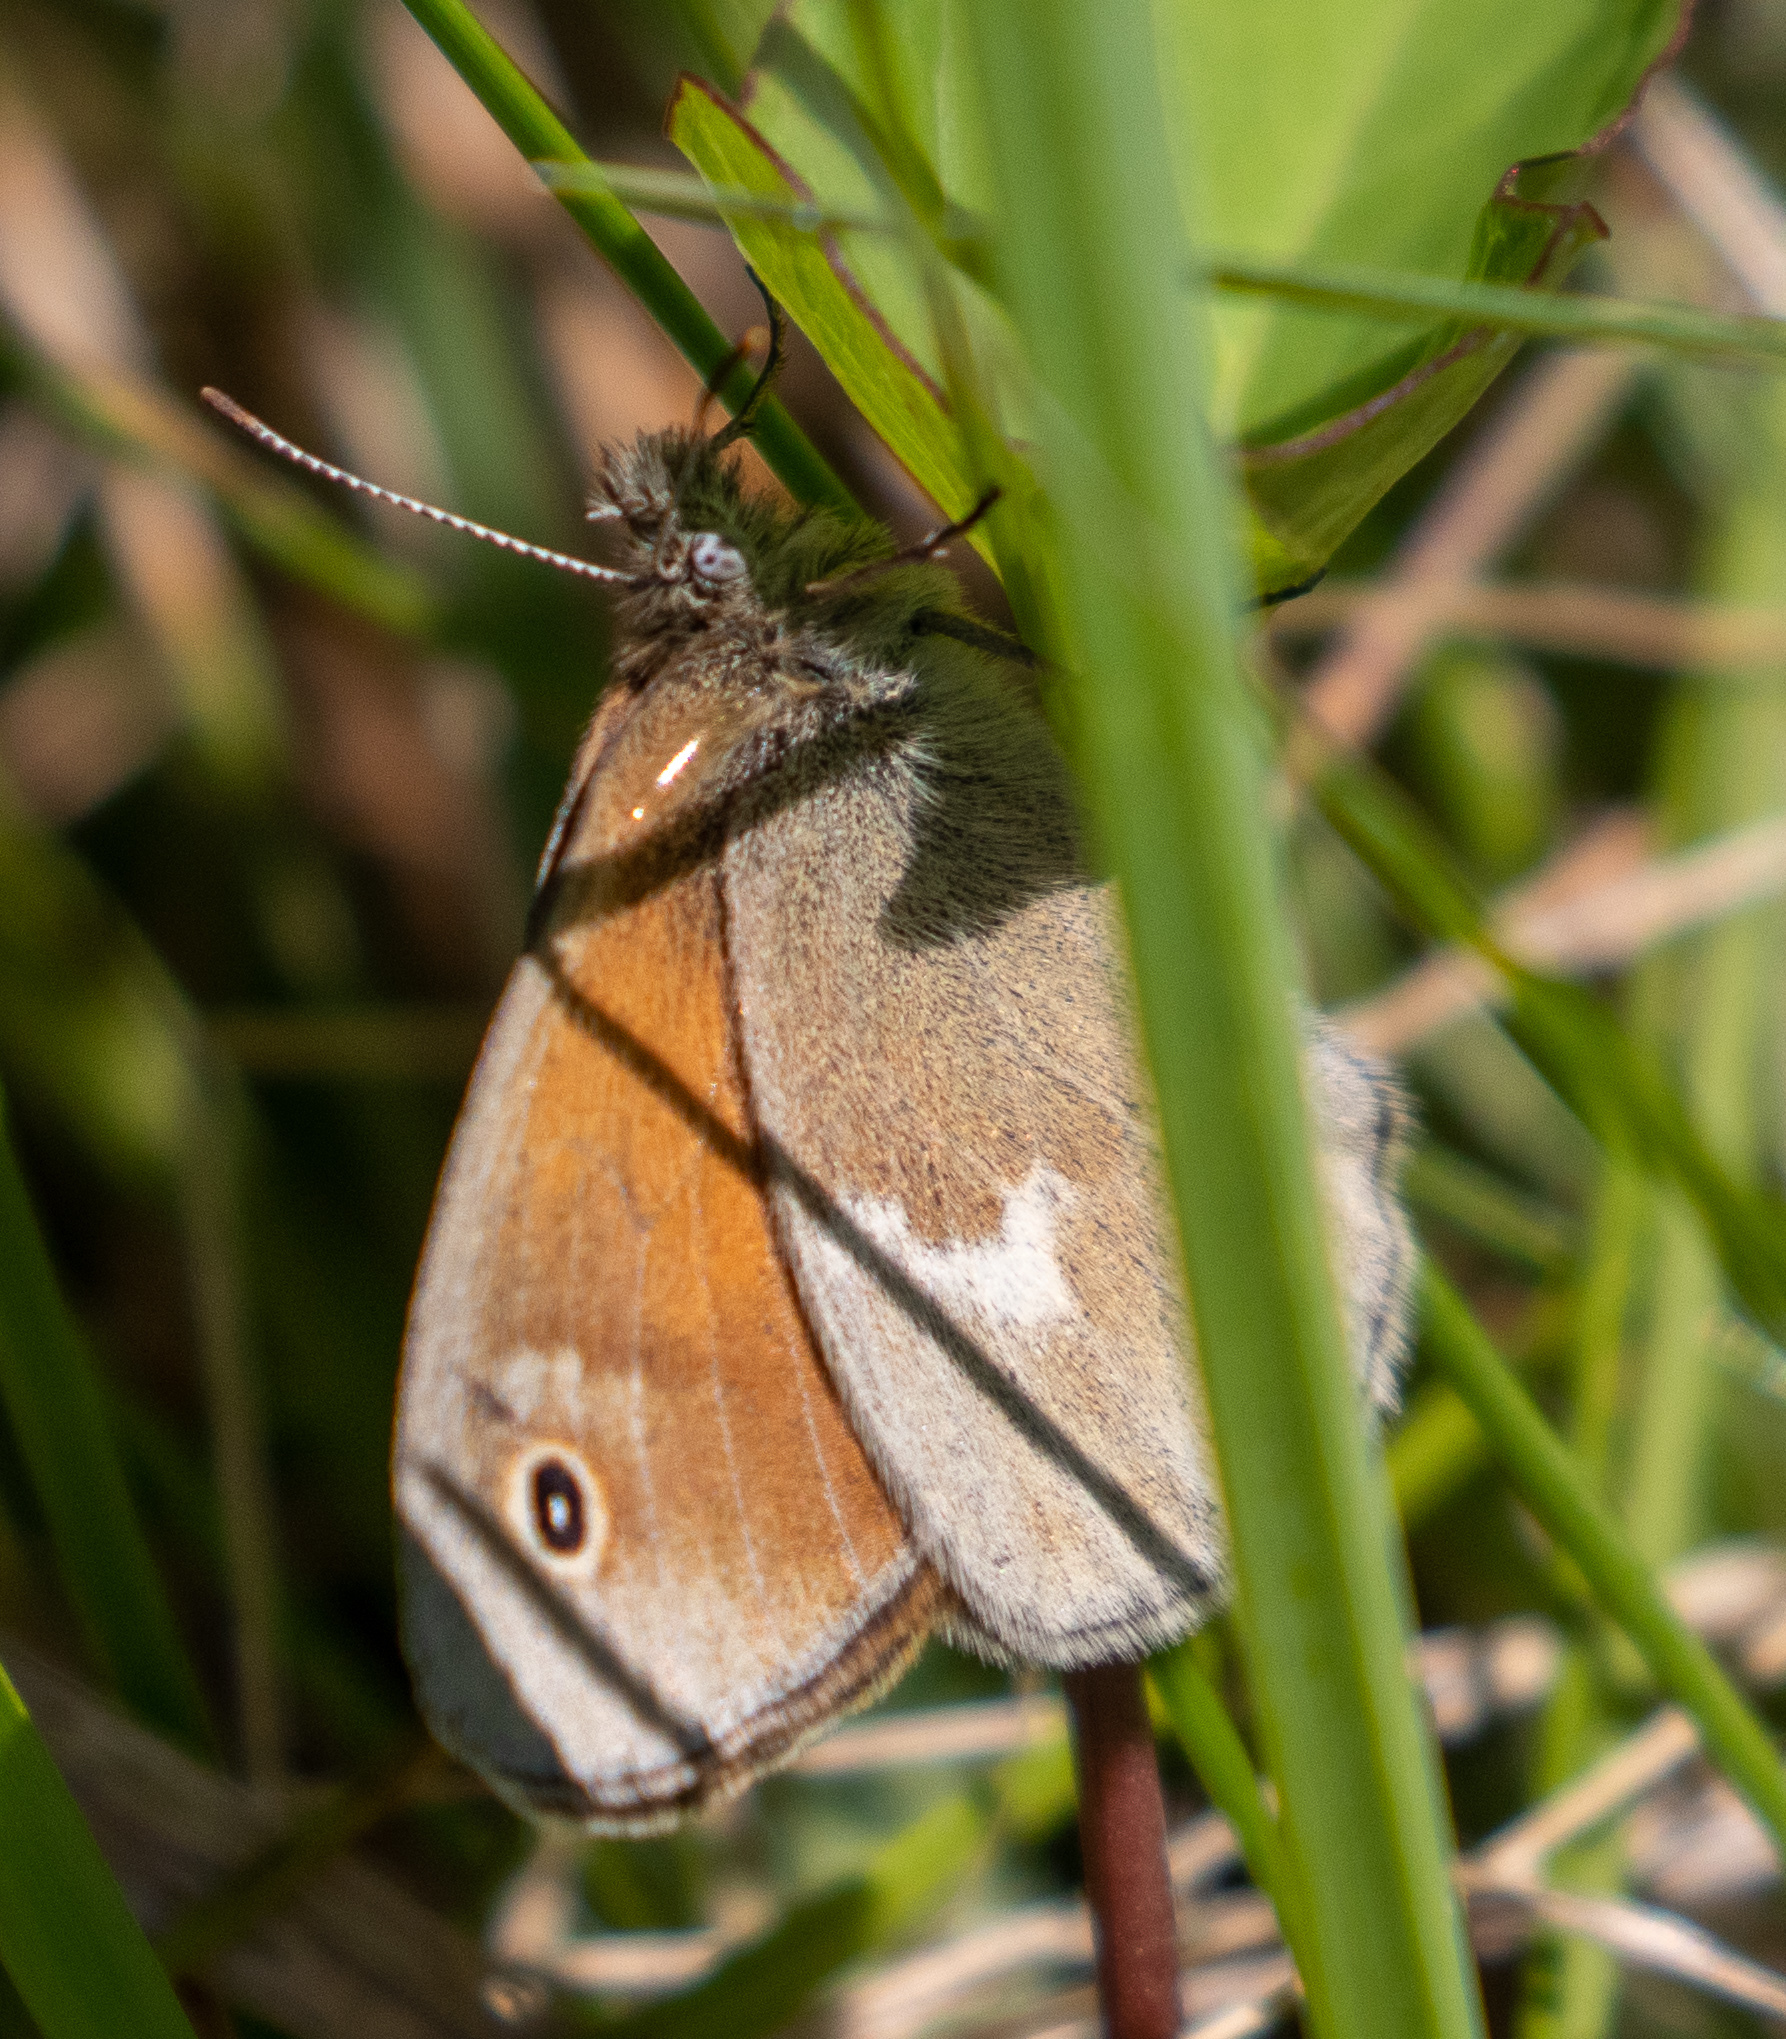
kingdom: Animalia
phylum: Arthropoda
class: Insecta
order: Lepidoptera
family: Nymphalidae
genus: Coenonympha
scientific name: Coenonympha california
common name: Common ringlet
